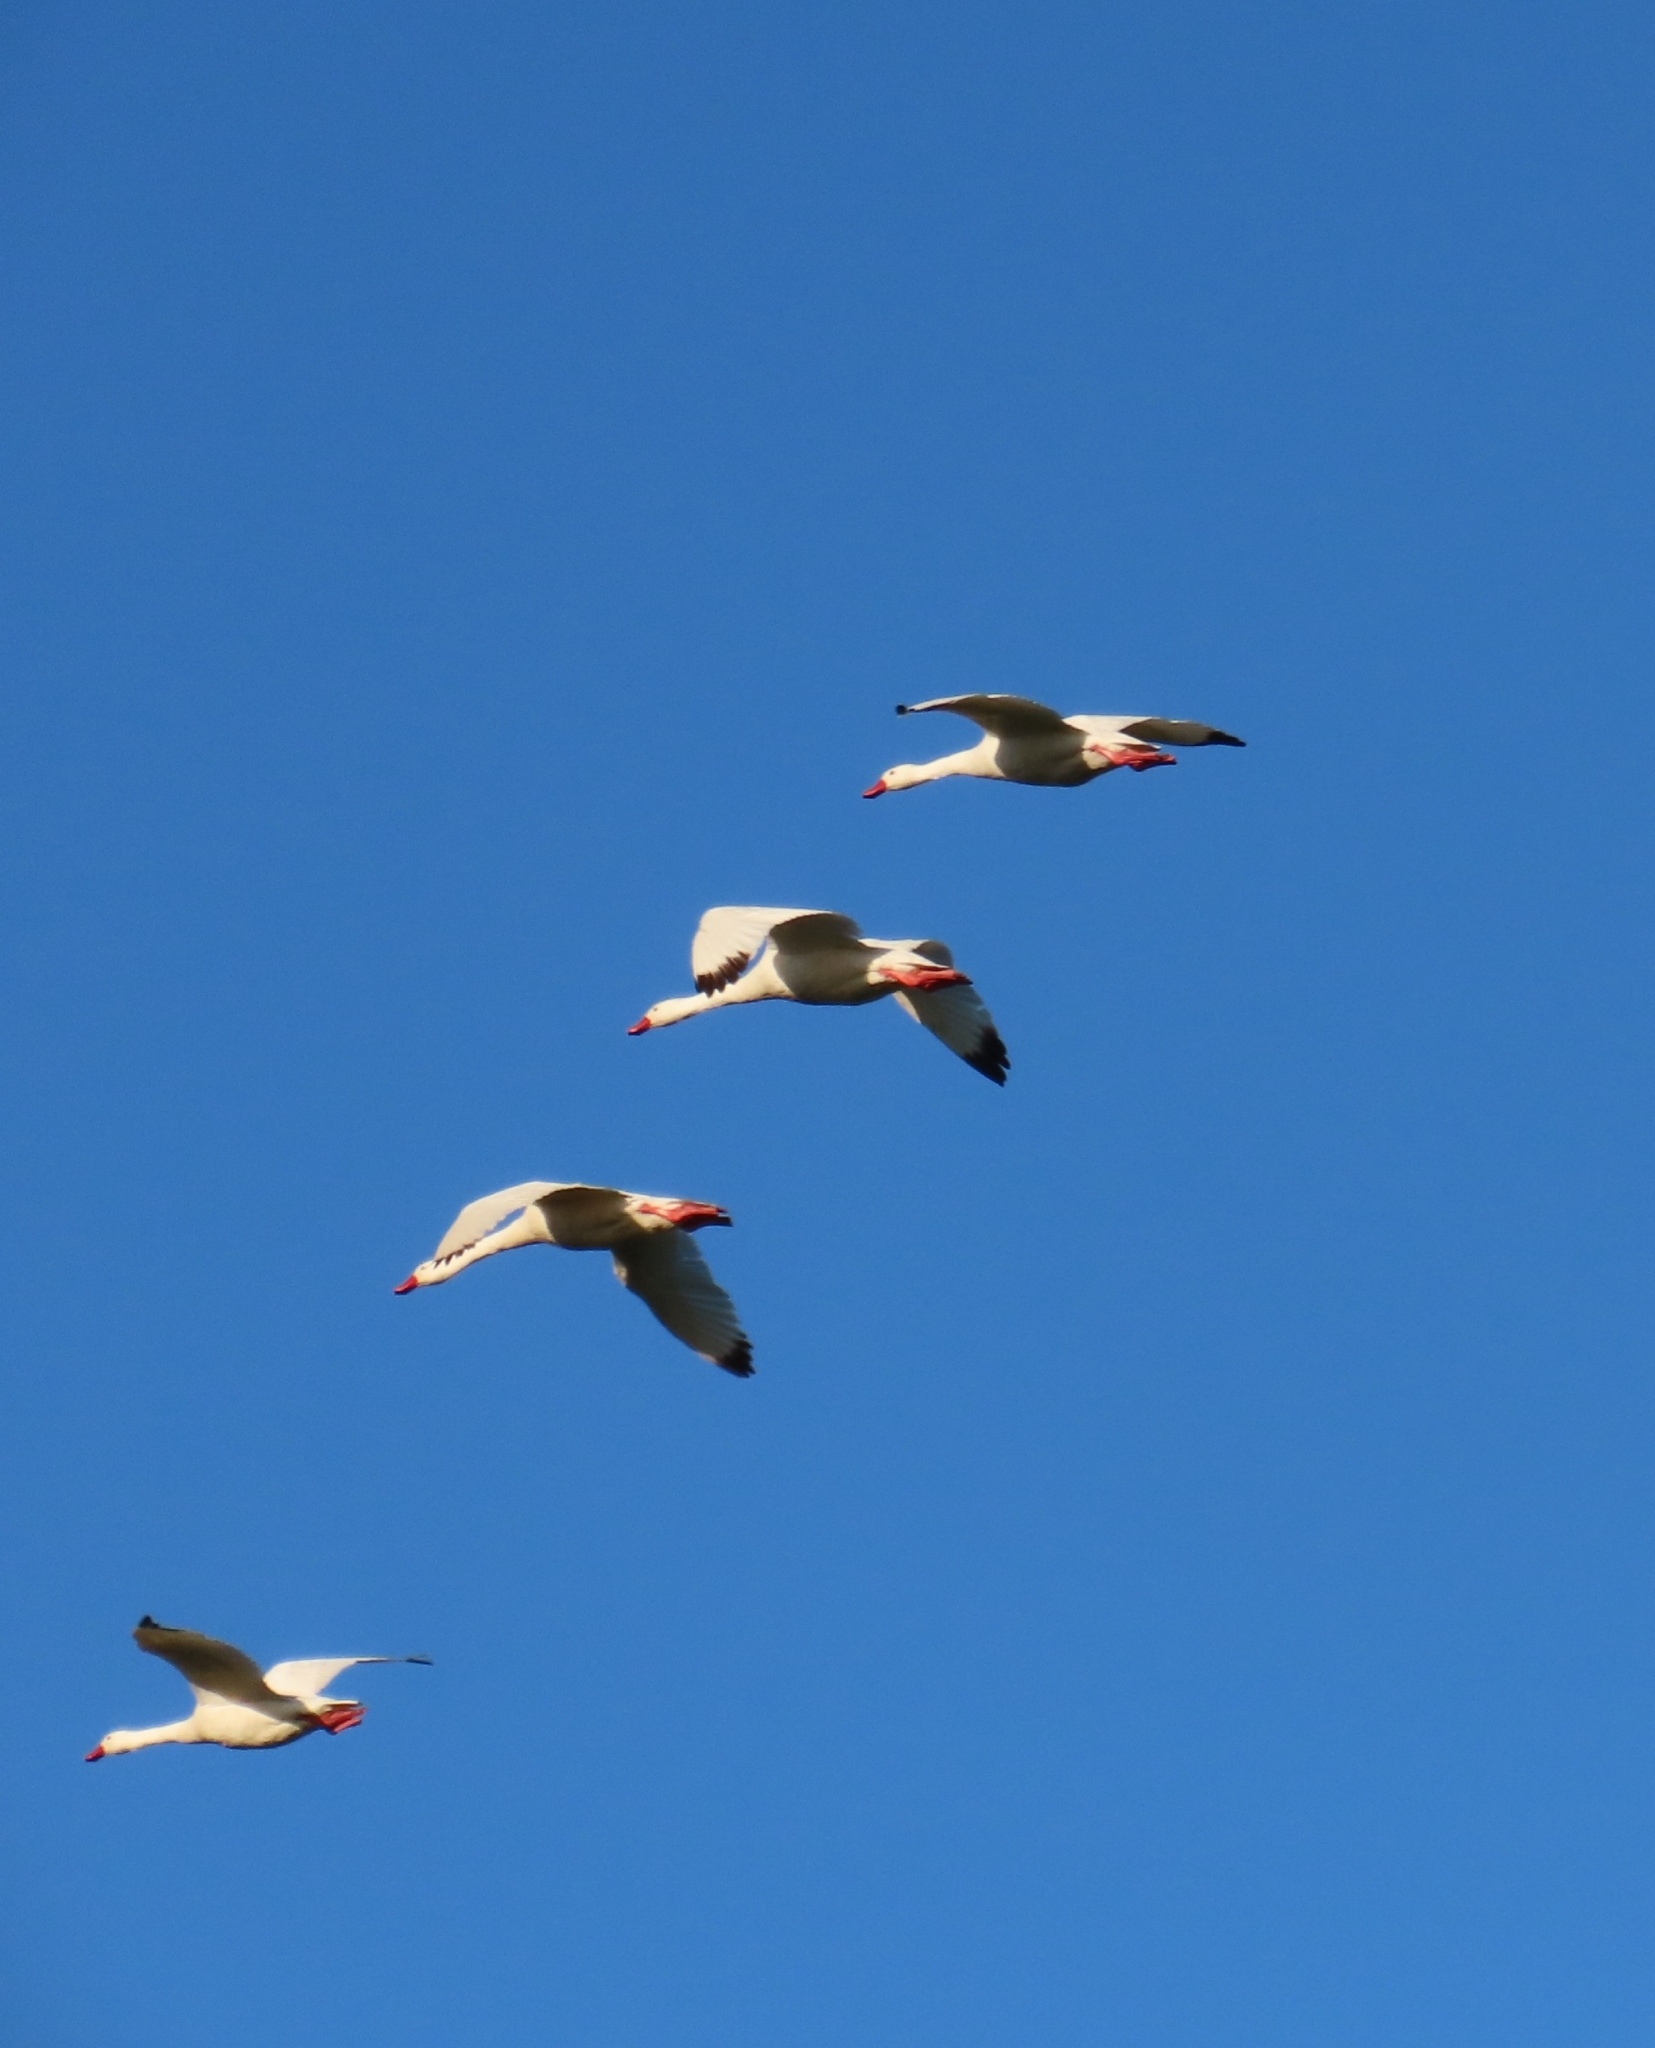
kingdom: Animalia
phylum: Chordata
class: Aves
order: Anseriformes
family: Anatidae
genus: Coscoroba
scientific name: Coscoroba coscoroba
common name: Coscoroba swan
